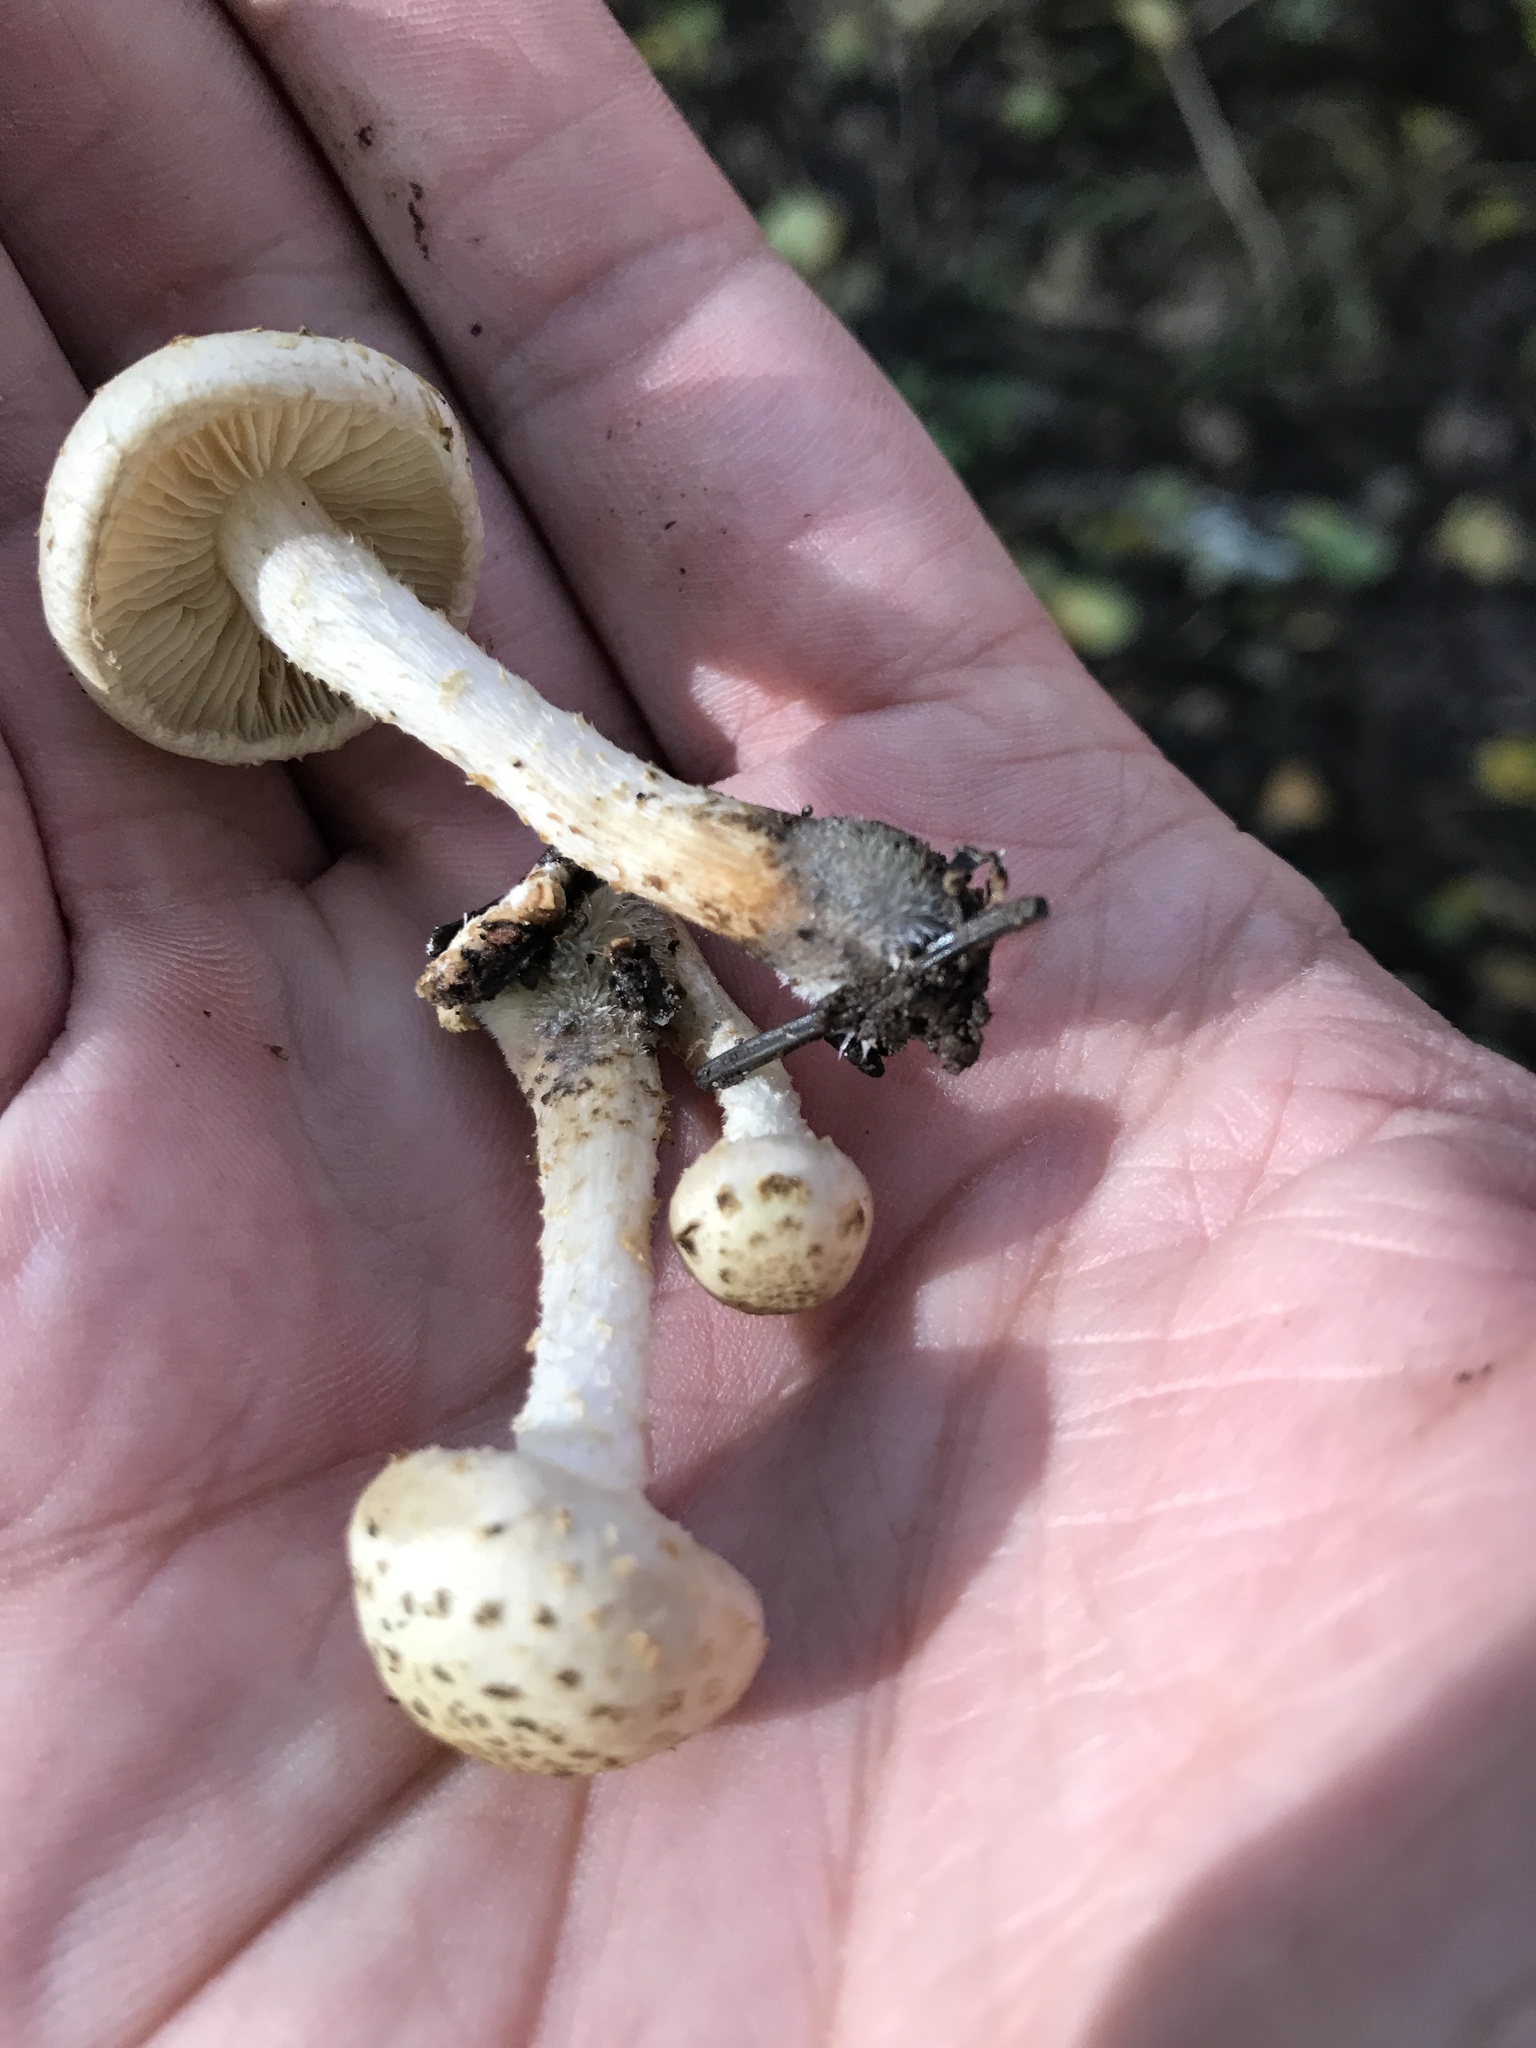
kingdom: Fungi
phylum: Basidiomycota
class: Agaricomycetes
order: Agaricales
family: Strophariaceae
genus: Pholiota
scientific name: Pholiota gummosa
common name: Sticky scalycap
